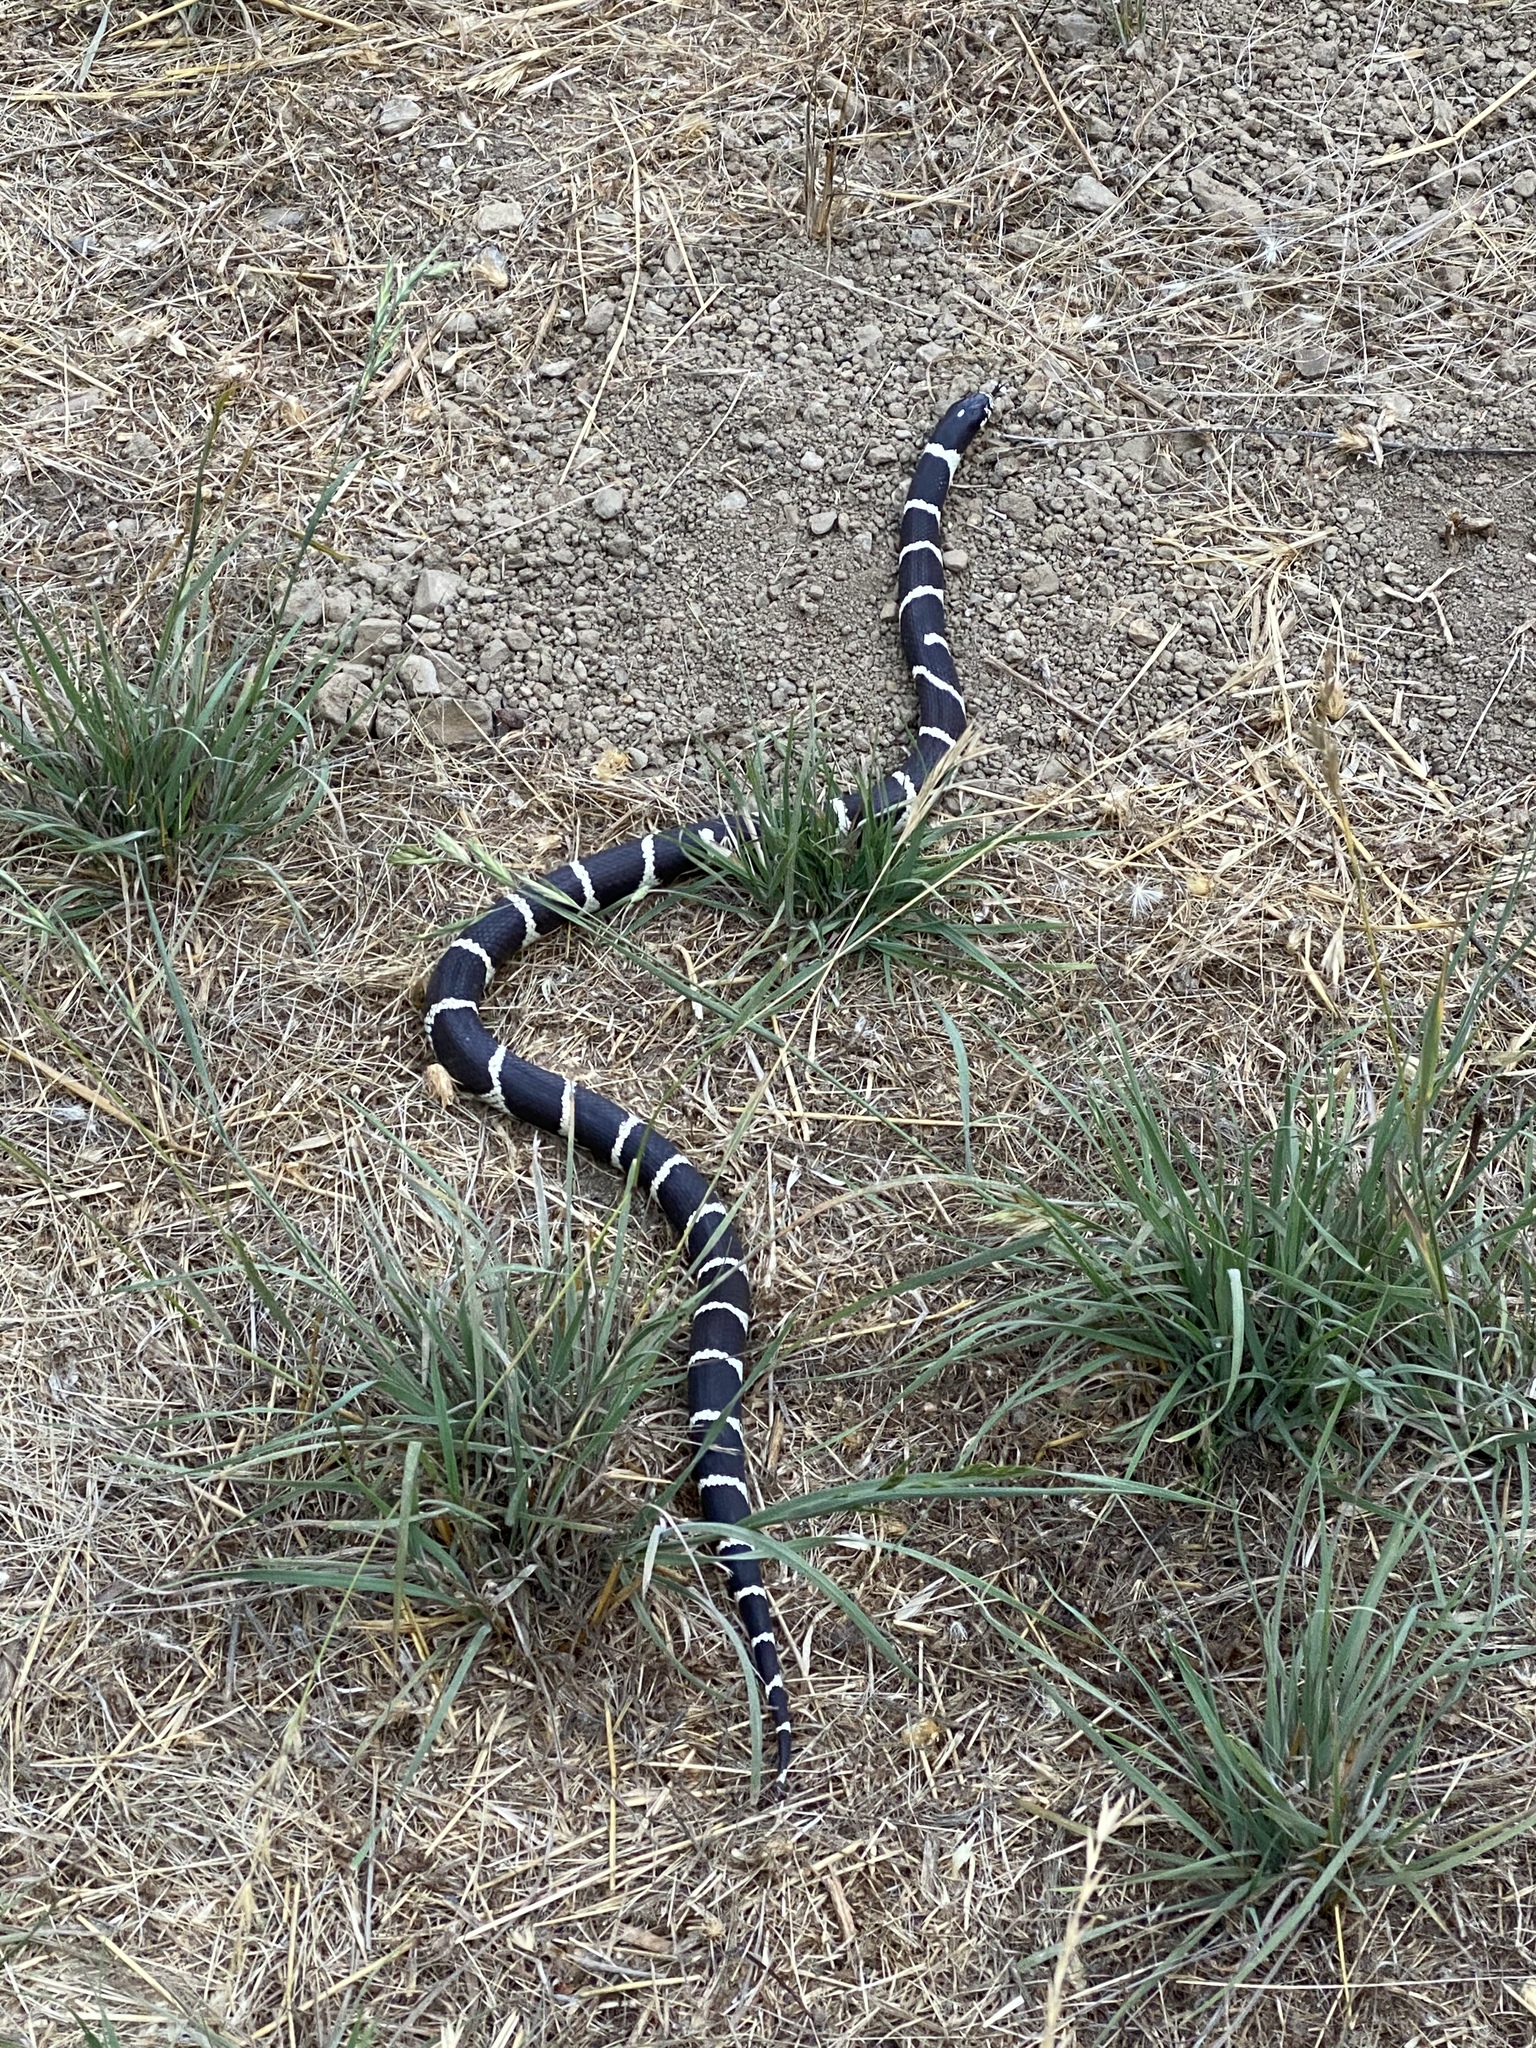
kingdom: Animalia
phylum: Chordata
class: Squamata
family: Colubridae
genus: Lampropeltis
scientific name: Lampropeltis californiae
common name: California kingsnake
